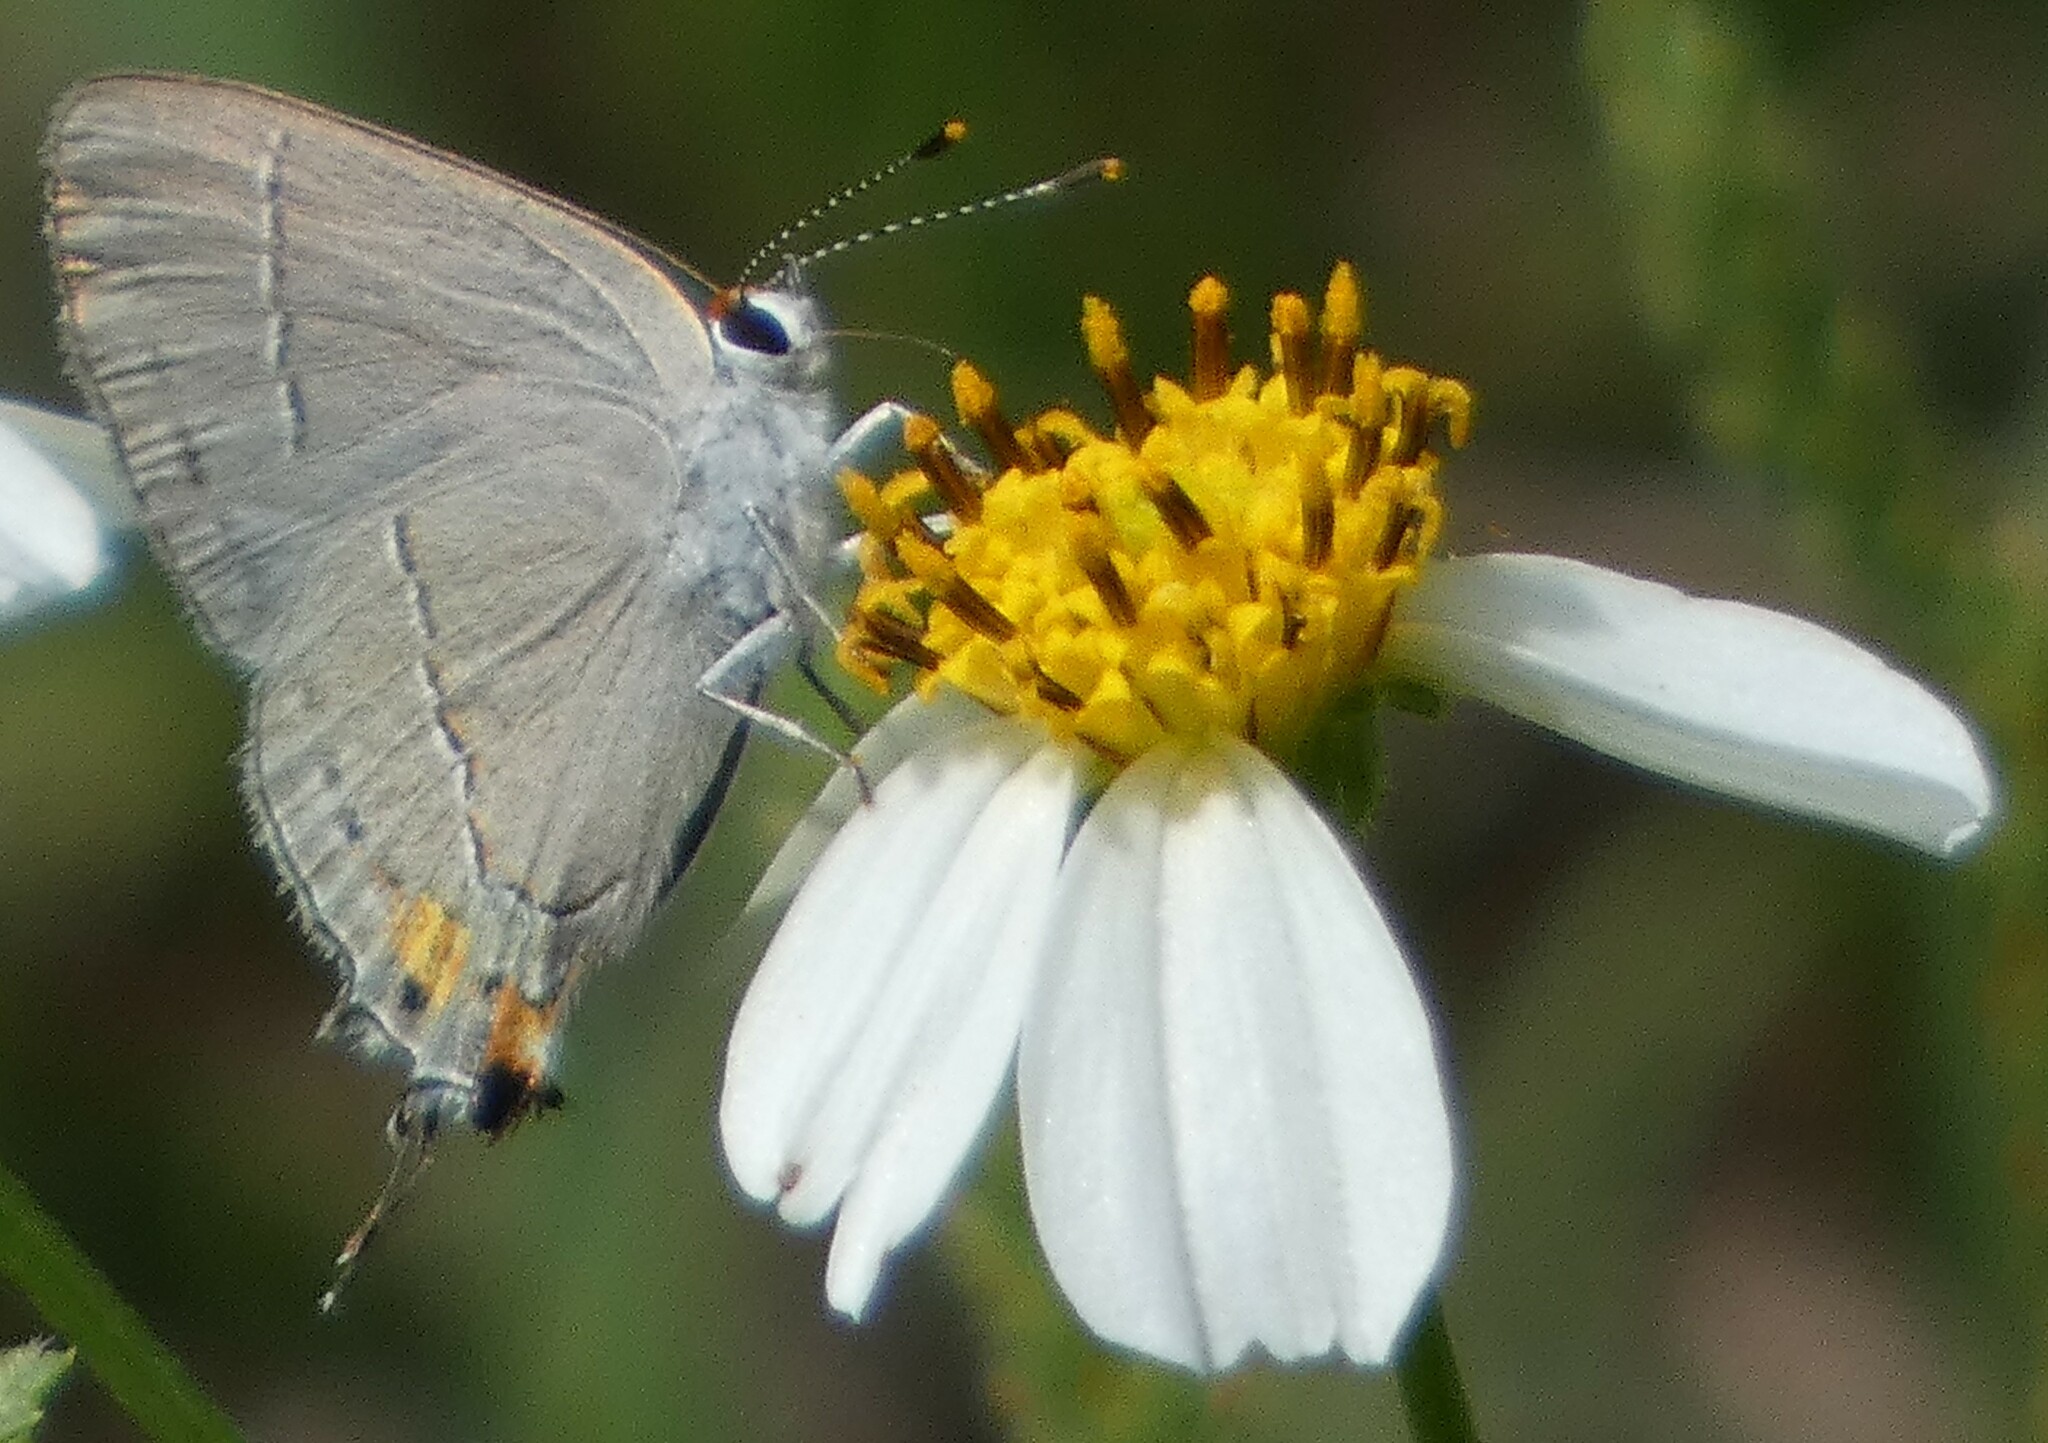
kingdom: Animalia
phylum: Arthropoda
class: Insecta
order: Lepidoptera
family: Lycaenidae
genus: Strymon
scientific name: Strymon melinus
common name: Gray hairstreak
